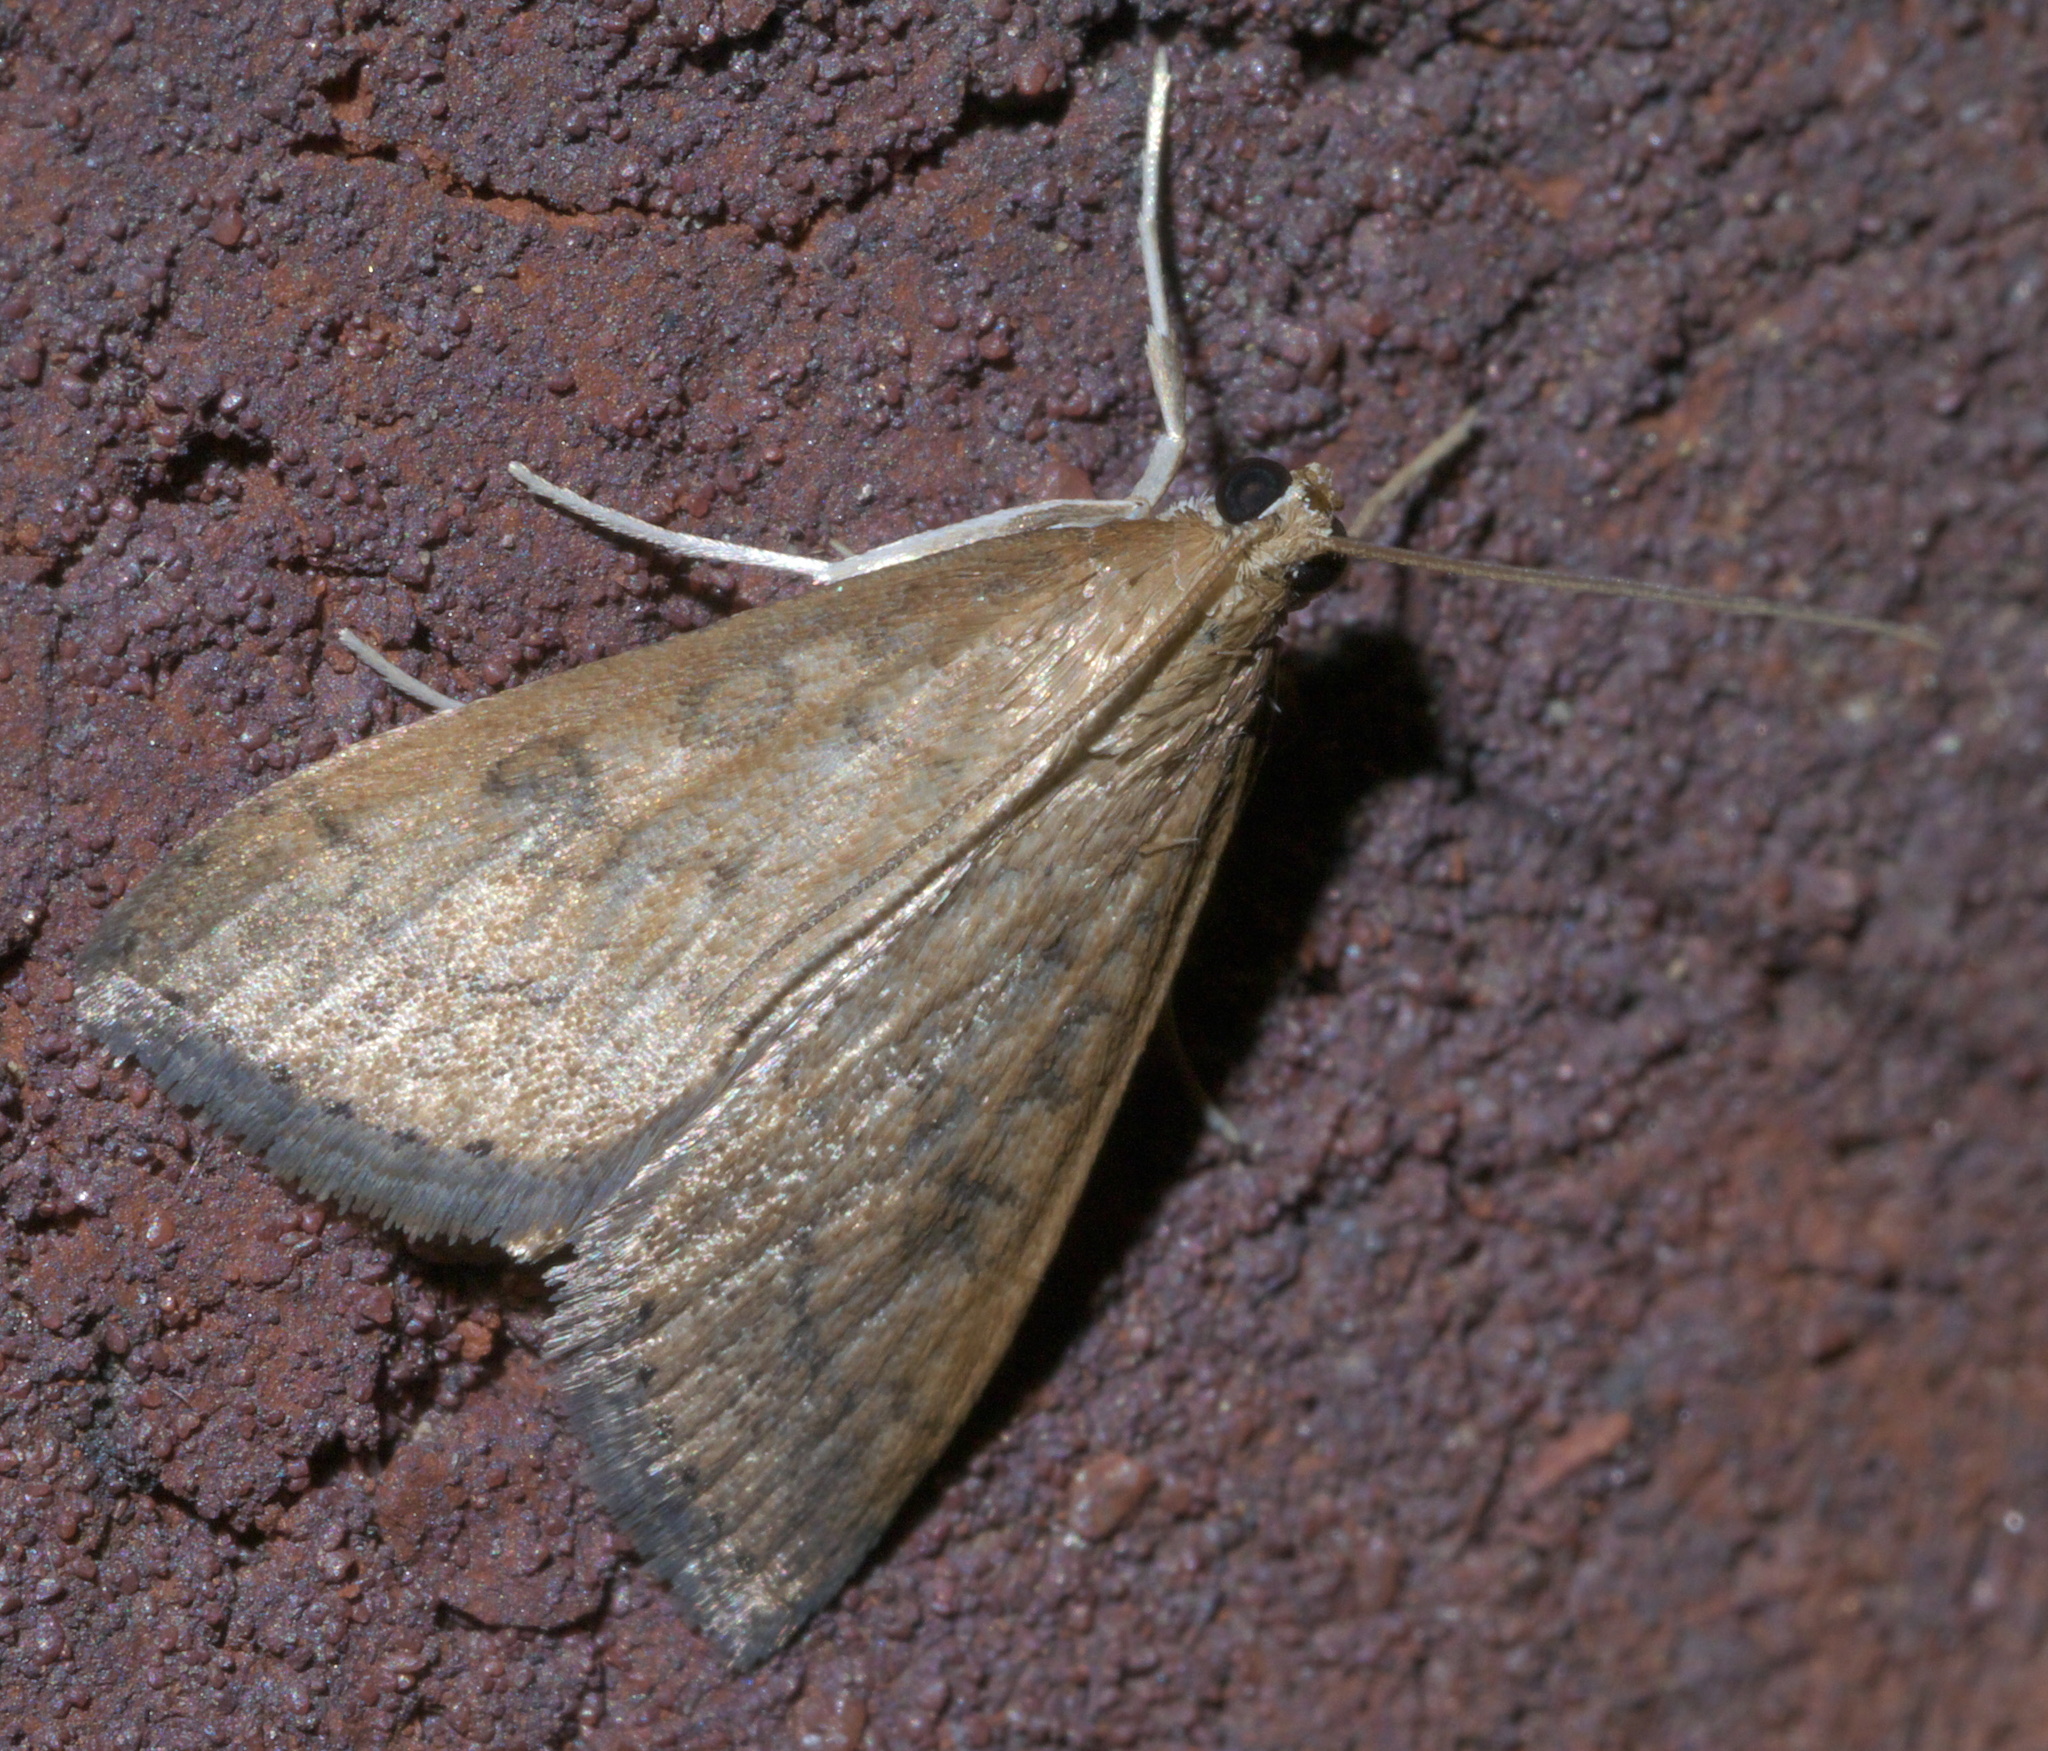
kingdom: Animalia
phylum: Arthropoda
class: Insecta
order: Lepidoptera
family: Crambidae
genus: Udea
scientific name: Udea rubigalis
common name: Celery leaftier moth
